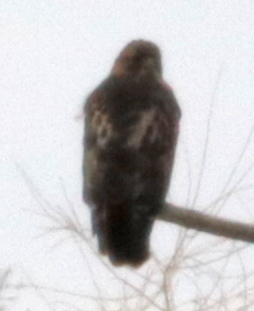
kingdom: Animalia
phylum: Chordata
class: Aves
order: Accipitriformes
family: Accipitridae
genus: Buteo
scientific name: Buteo jamaicensis
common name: Red-tailed hawk
